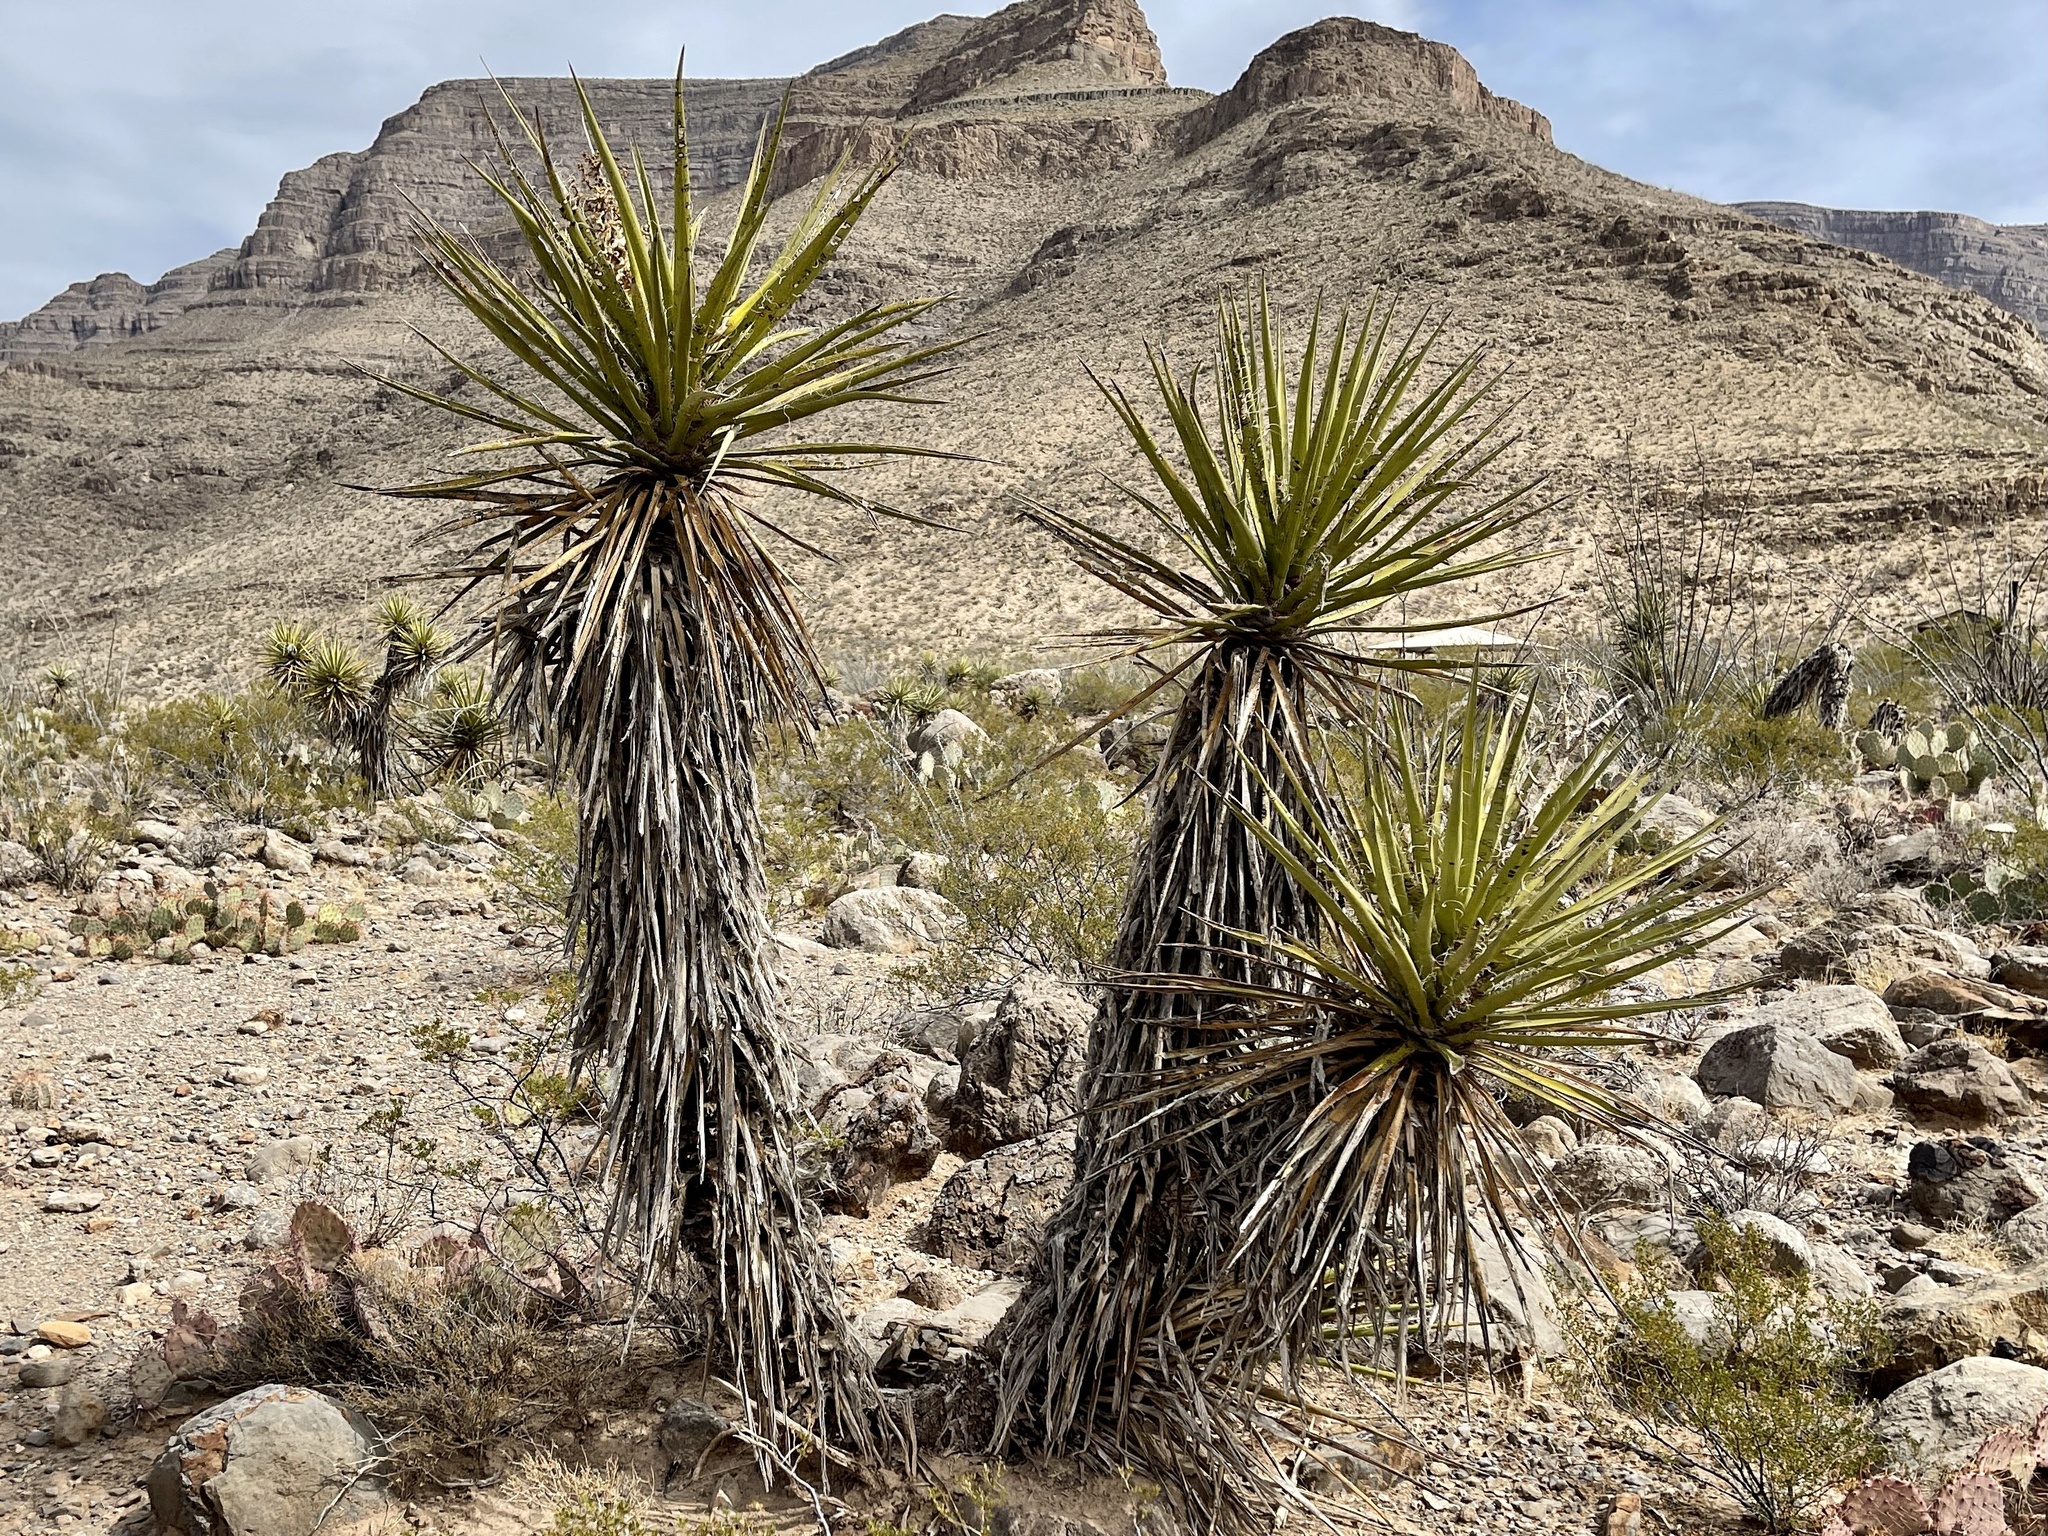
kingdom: Plantae
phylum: Tracheophyta
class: Liliopsida
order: Asparagales
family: Asparagaceae
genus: Yucca
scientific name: Yucca treculiana
